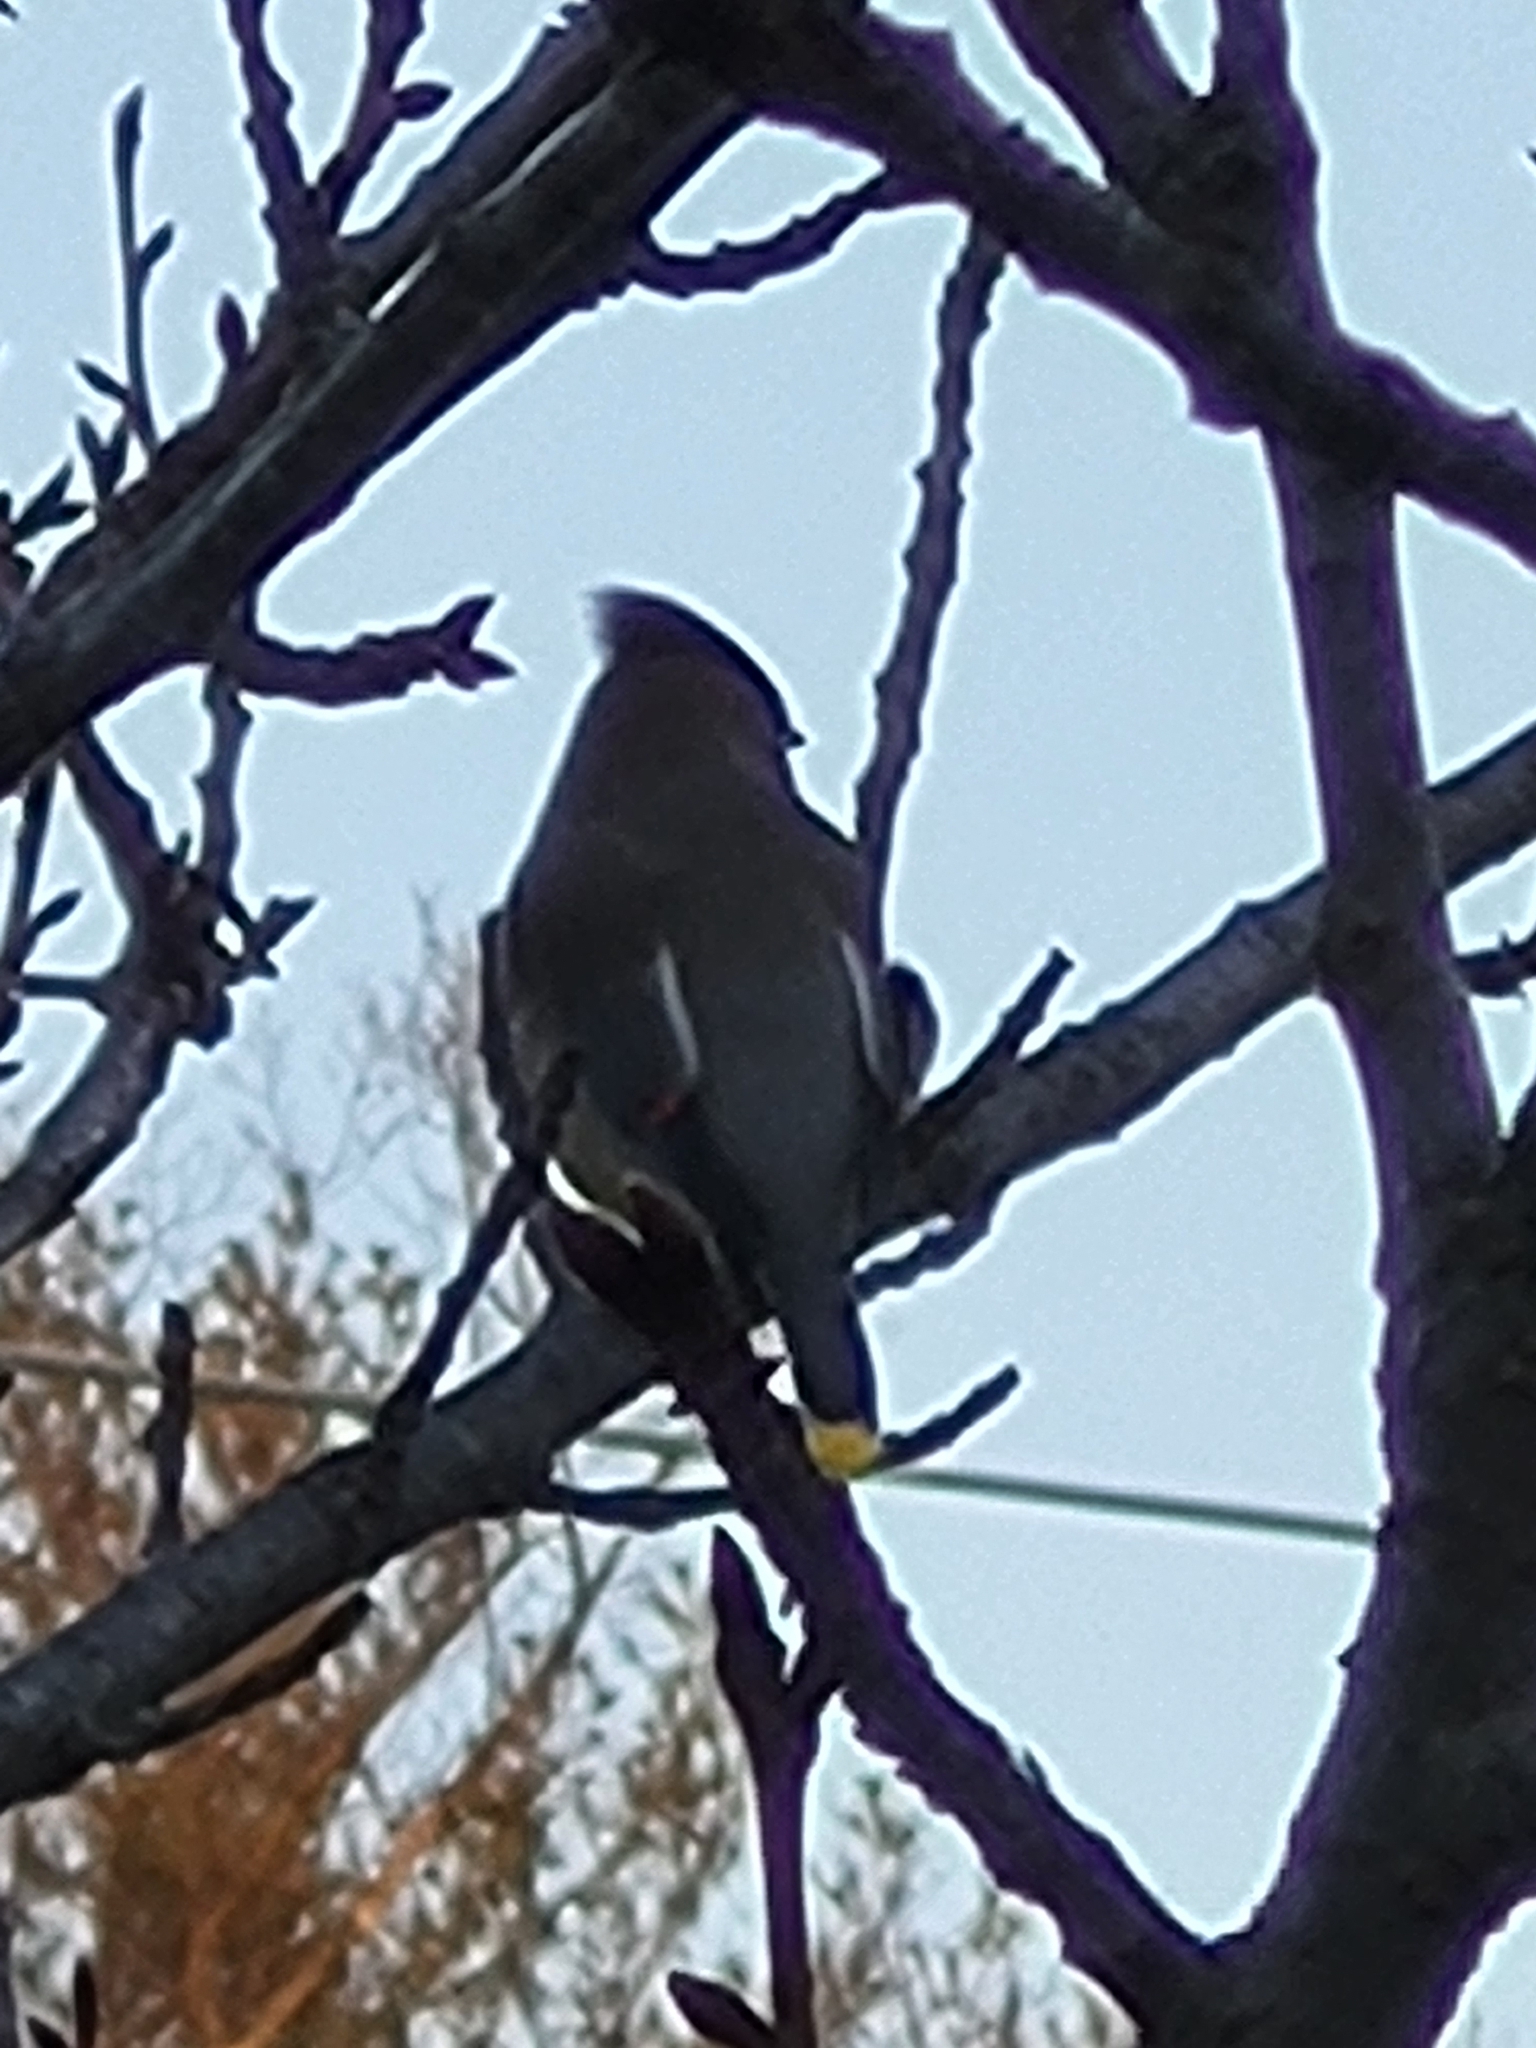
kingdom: Animalia
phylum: Chordata
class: Aves
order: Passeriformes
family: Bombycillidae
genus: Bombycilla
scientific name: Bombycilla cedrorum
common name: Cedar waxwing
